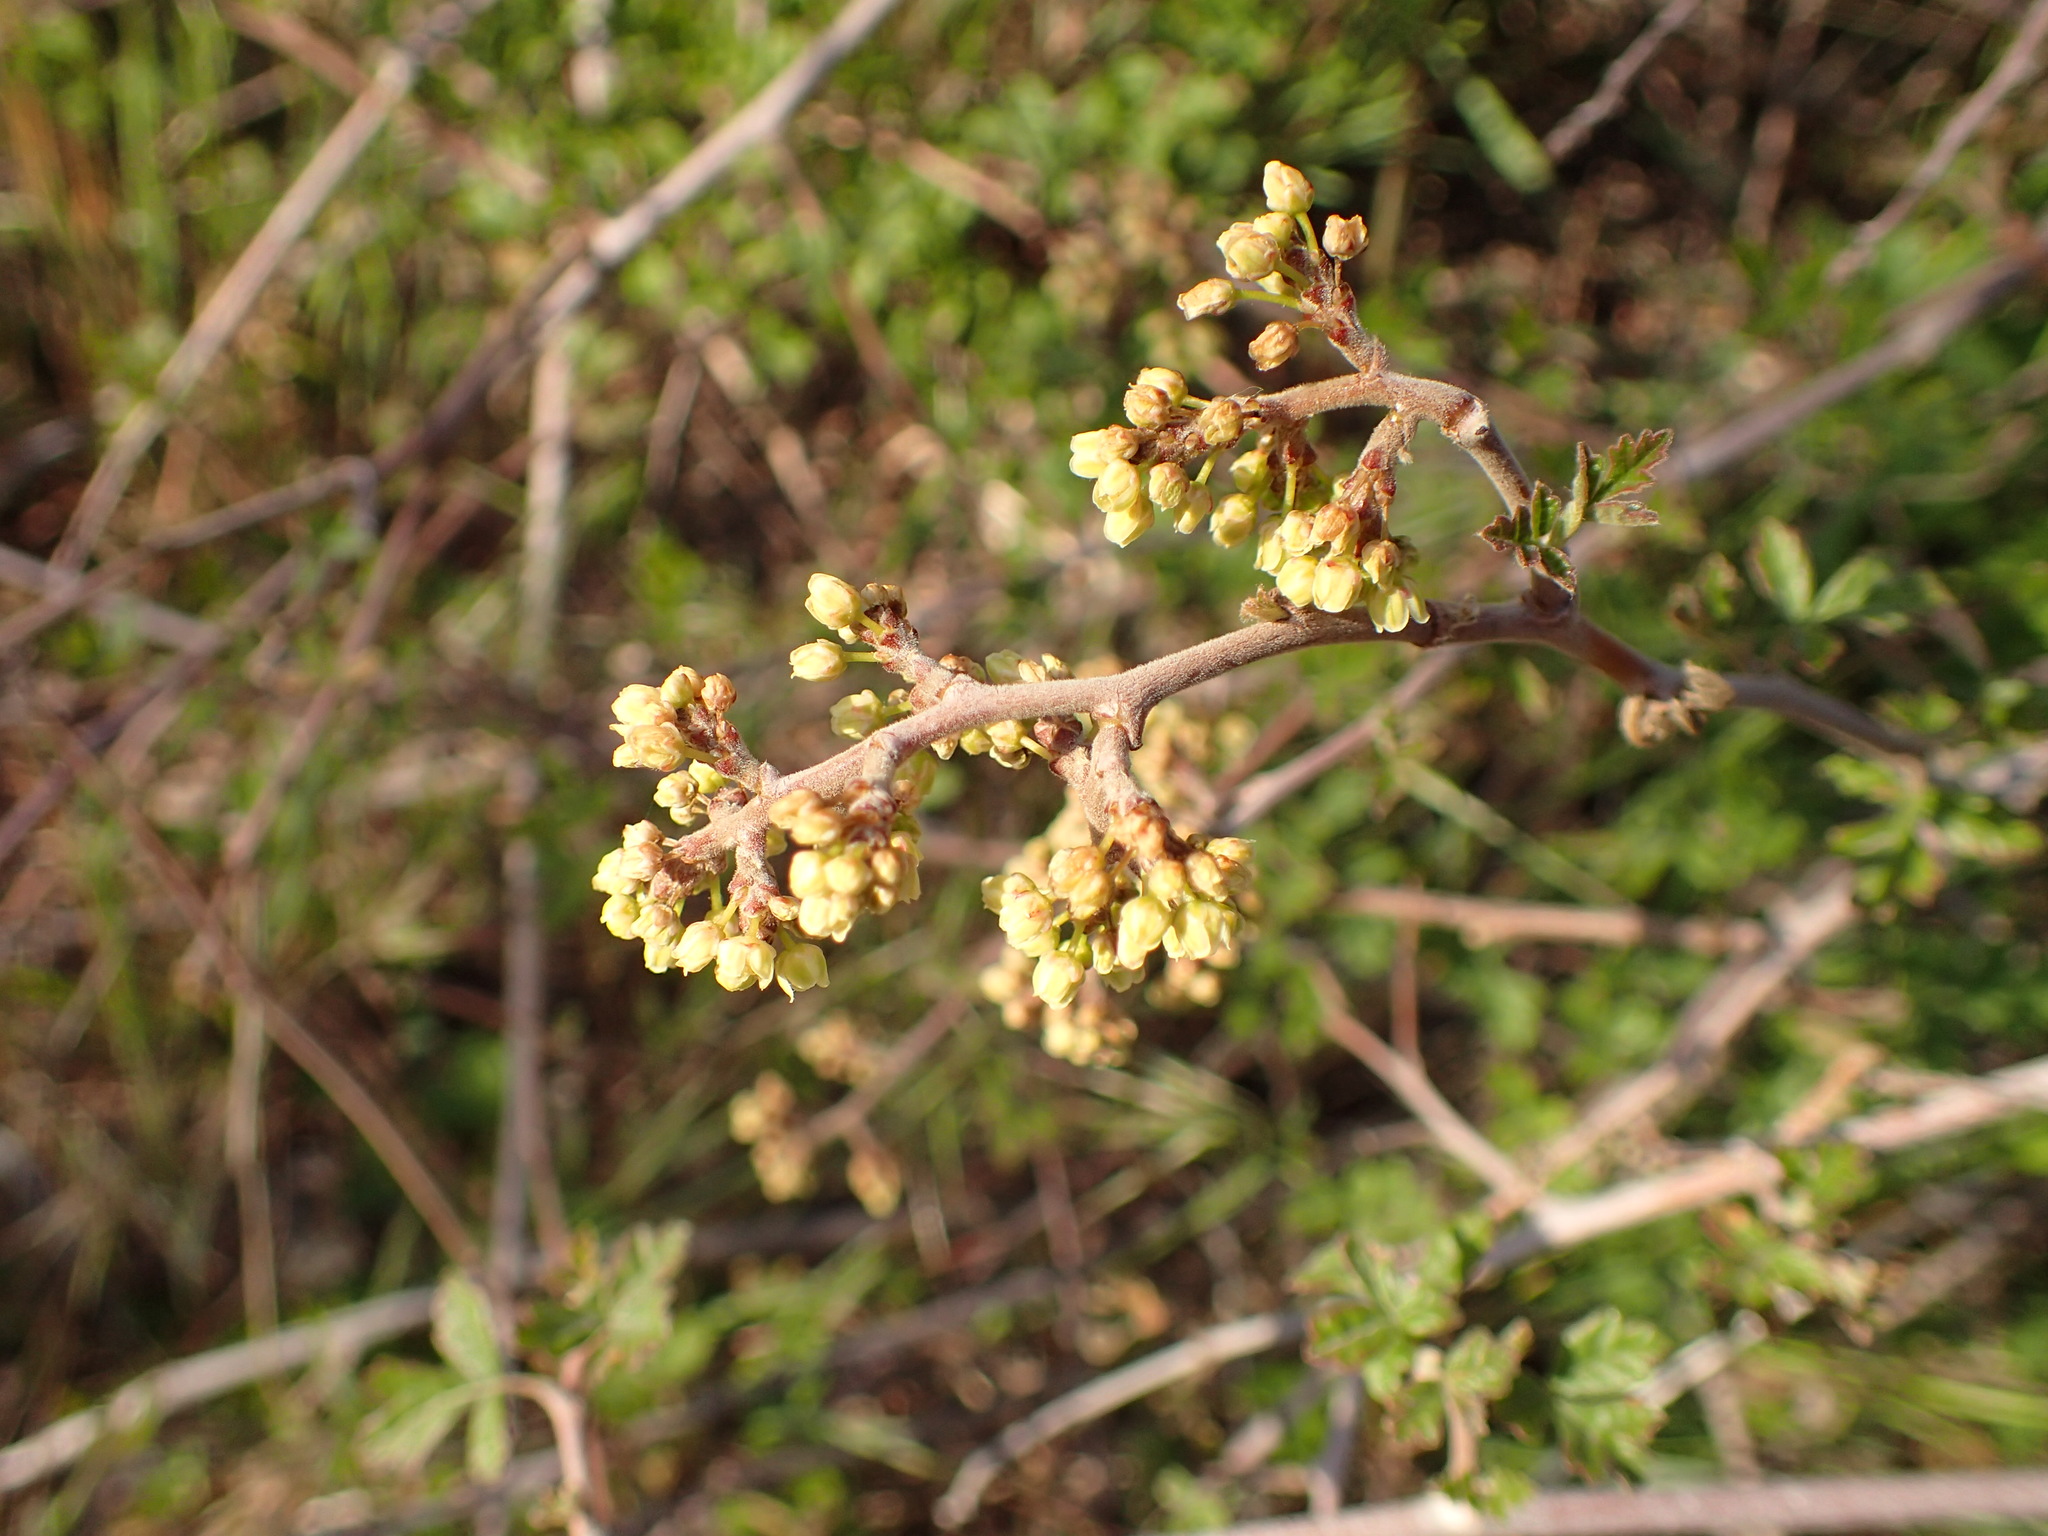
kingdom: Plantae
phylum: Tracheophyta
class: Magnoliopsida
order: Sapindales
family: Anacardiaceae
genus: Rhus
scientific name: Rhus aromatica
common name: Aromatic sumac
